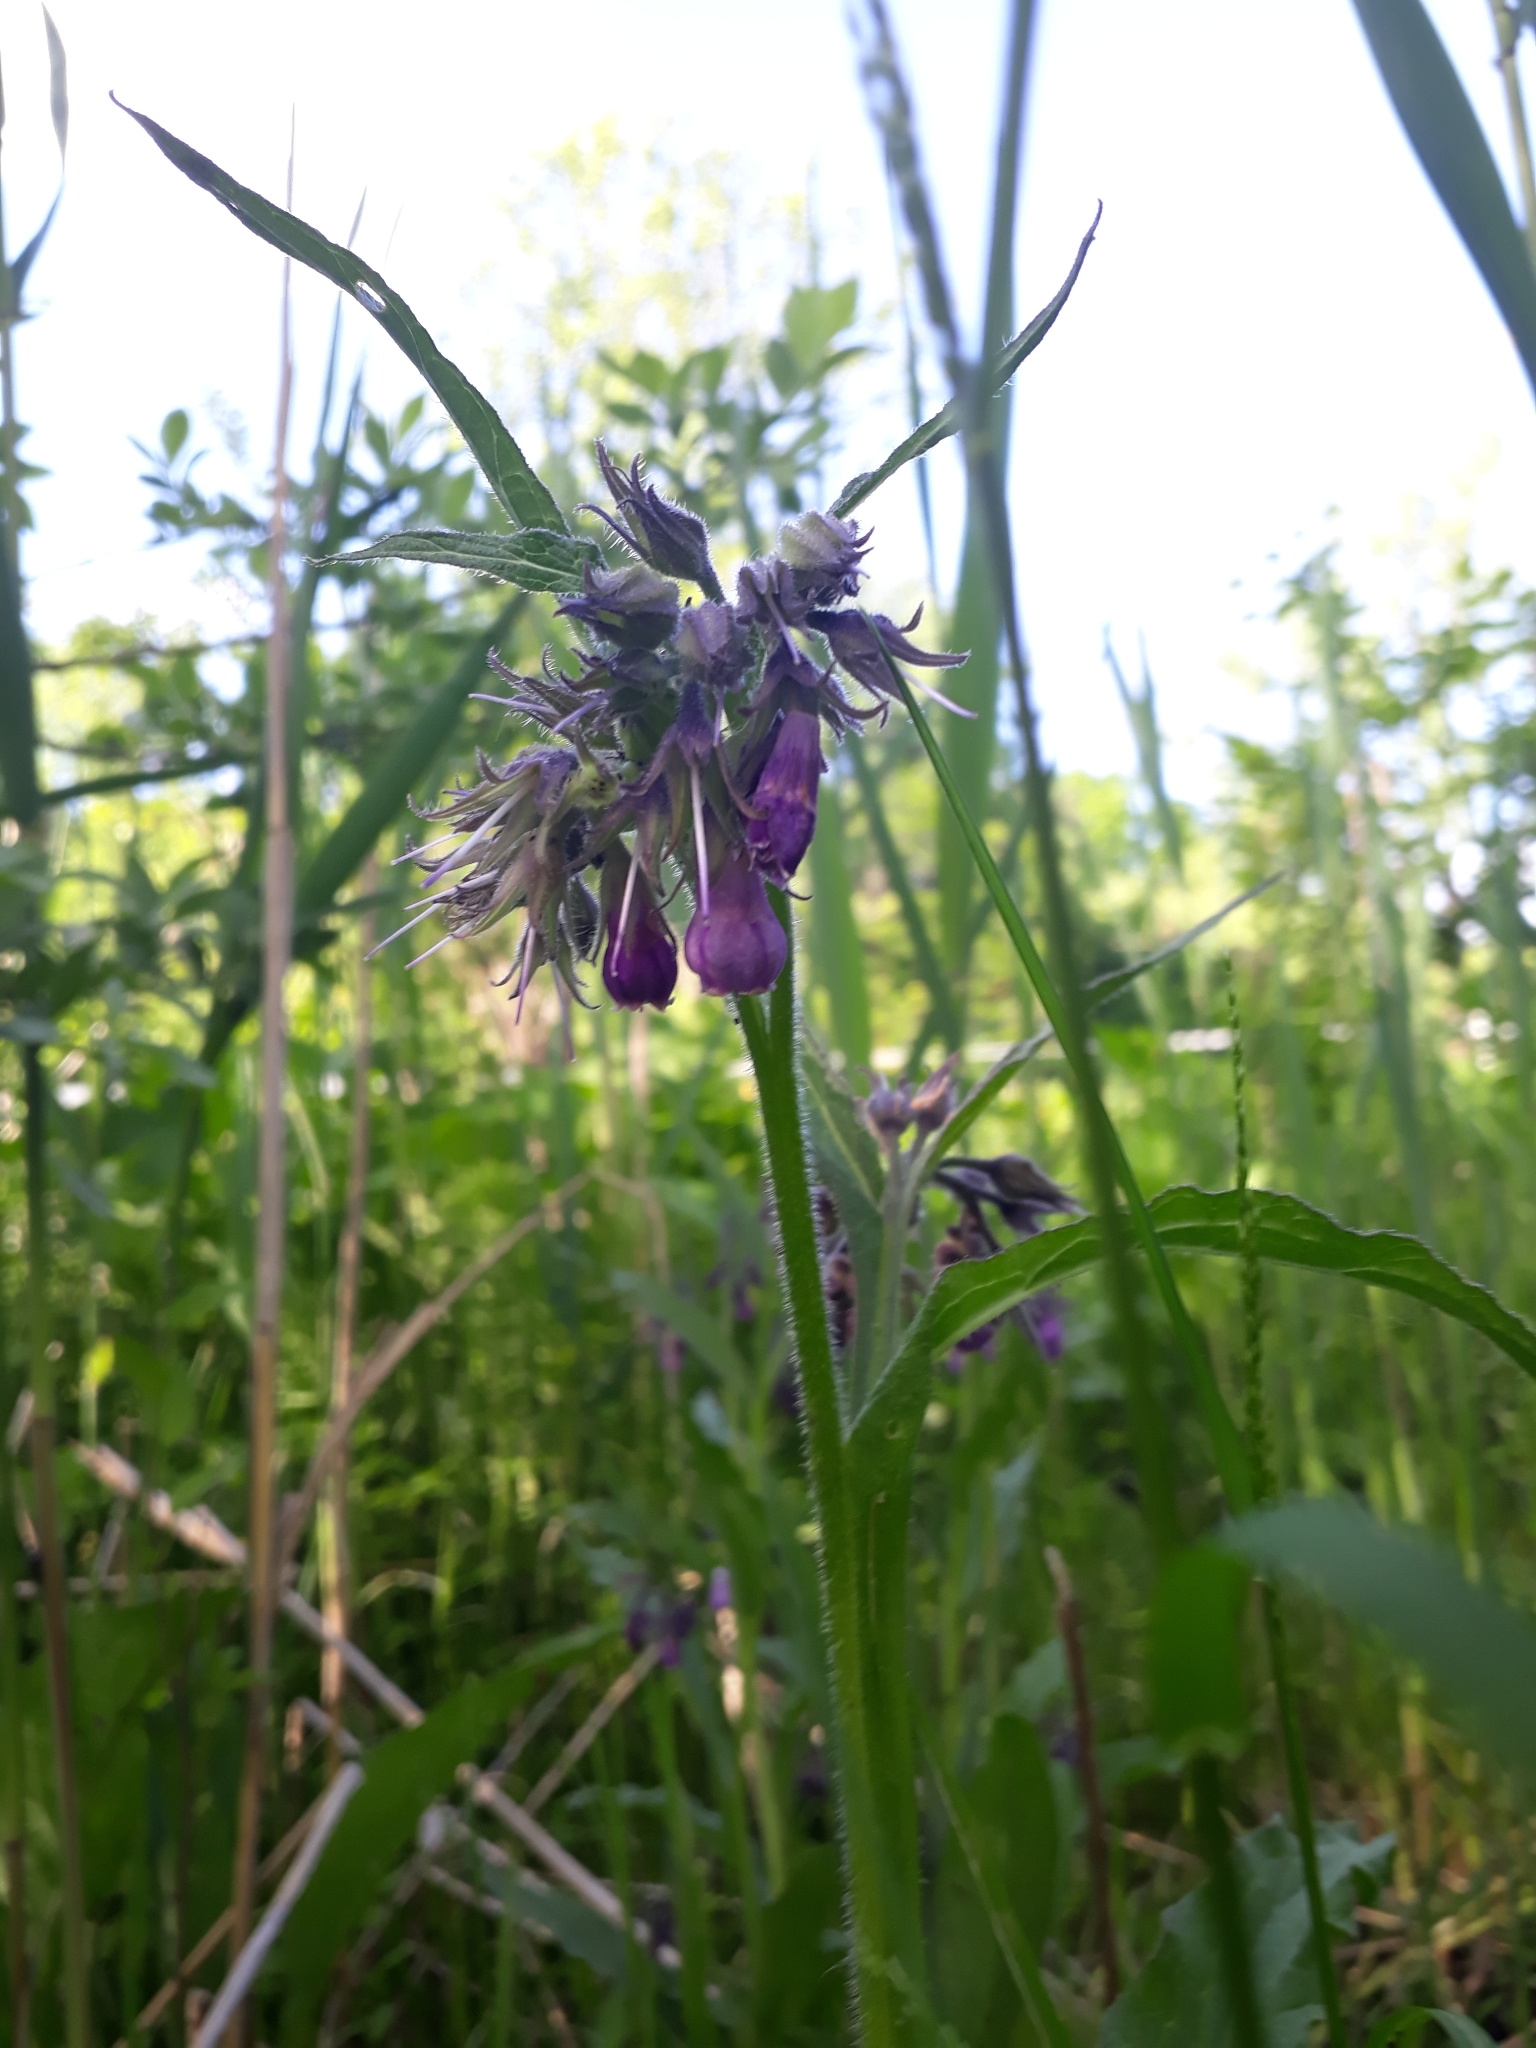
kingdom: Plantae
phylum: Tracheophyta
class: Magnoliopsida
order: Boraginales
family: Boraginaceae
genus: Symphytum
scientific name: Symphytum officinale
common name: Common comfrey
